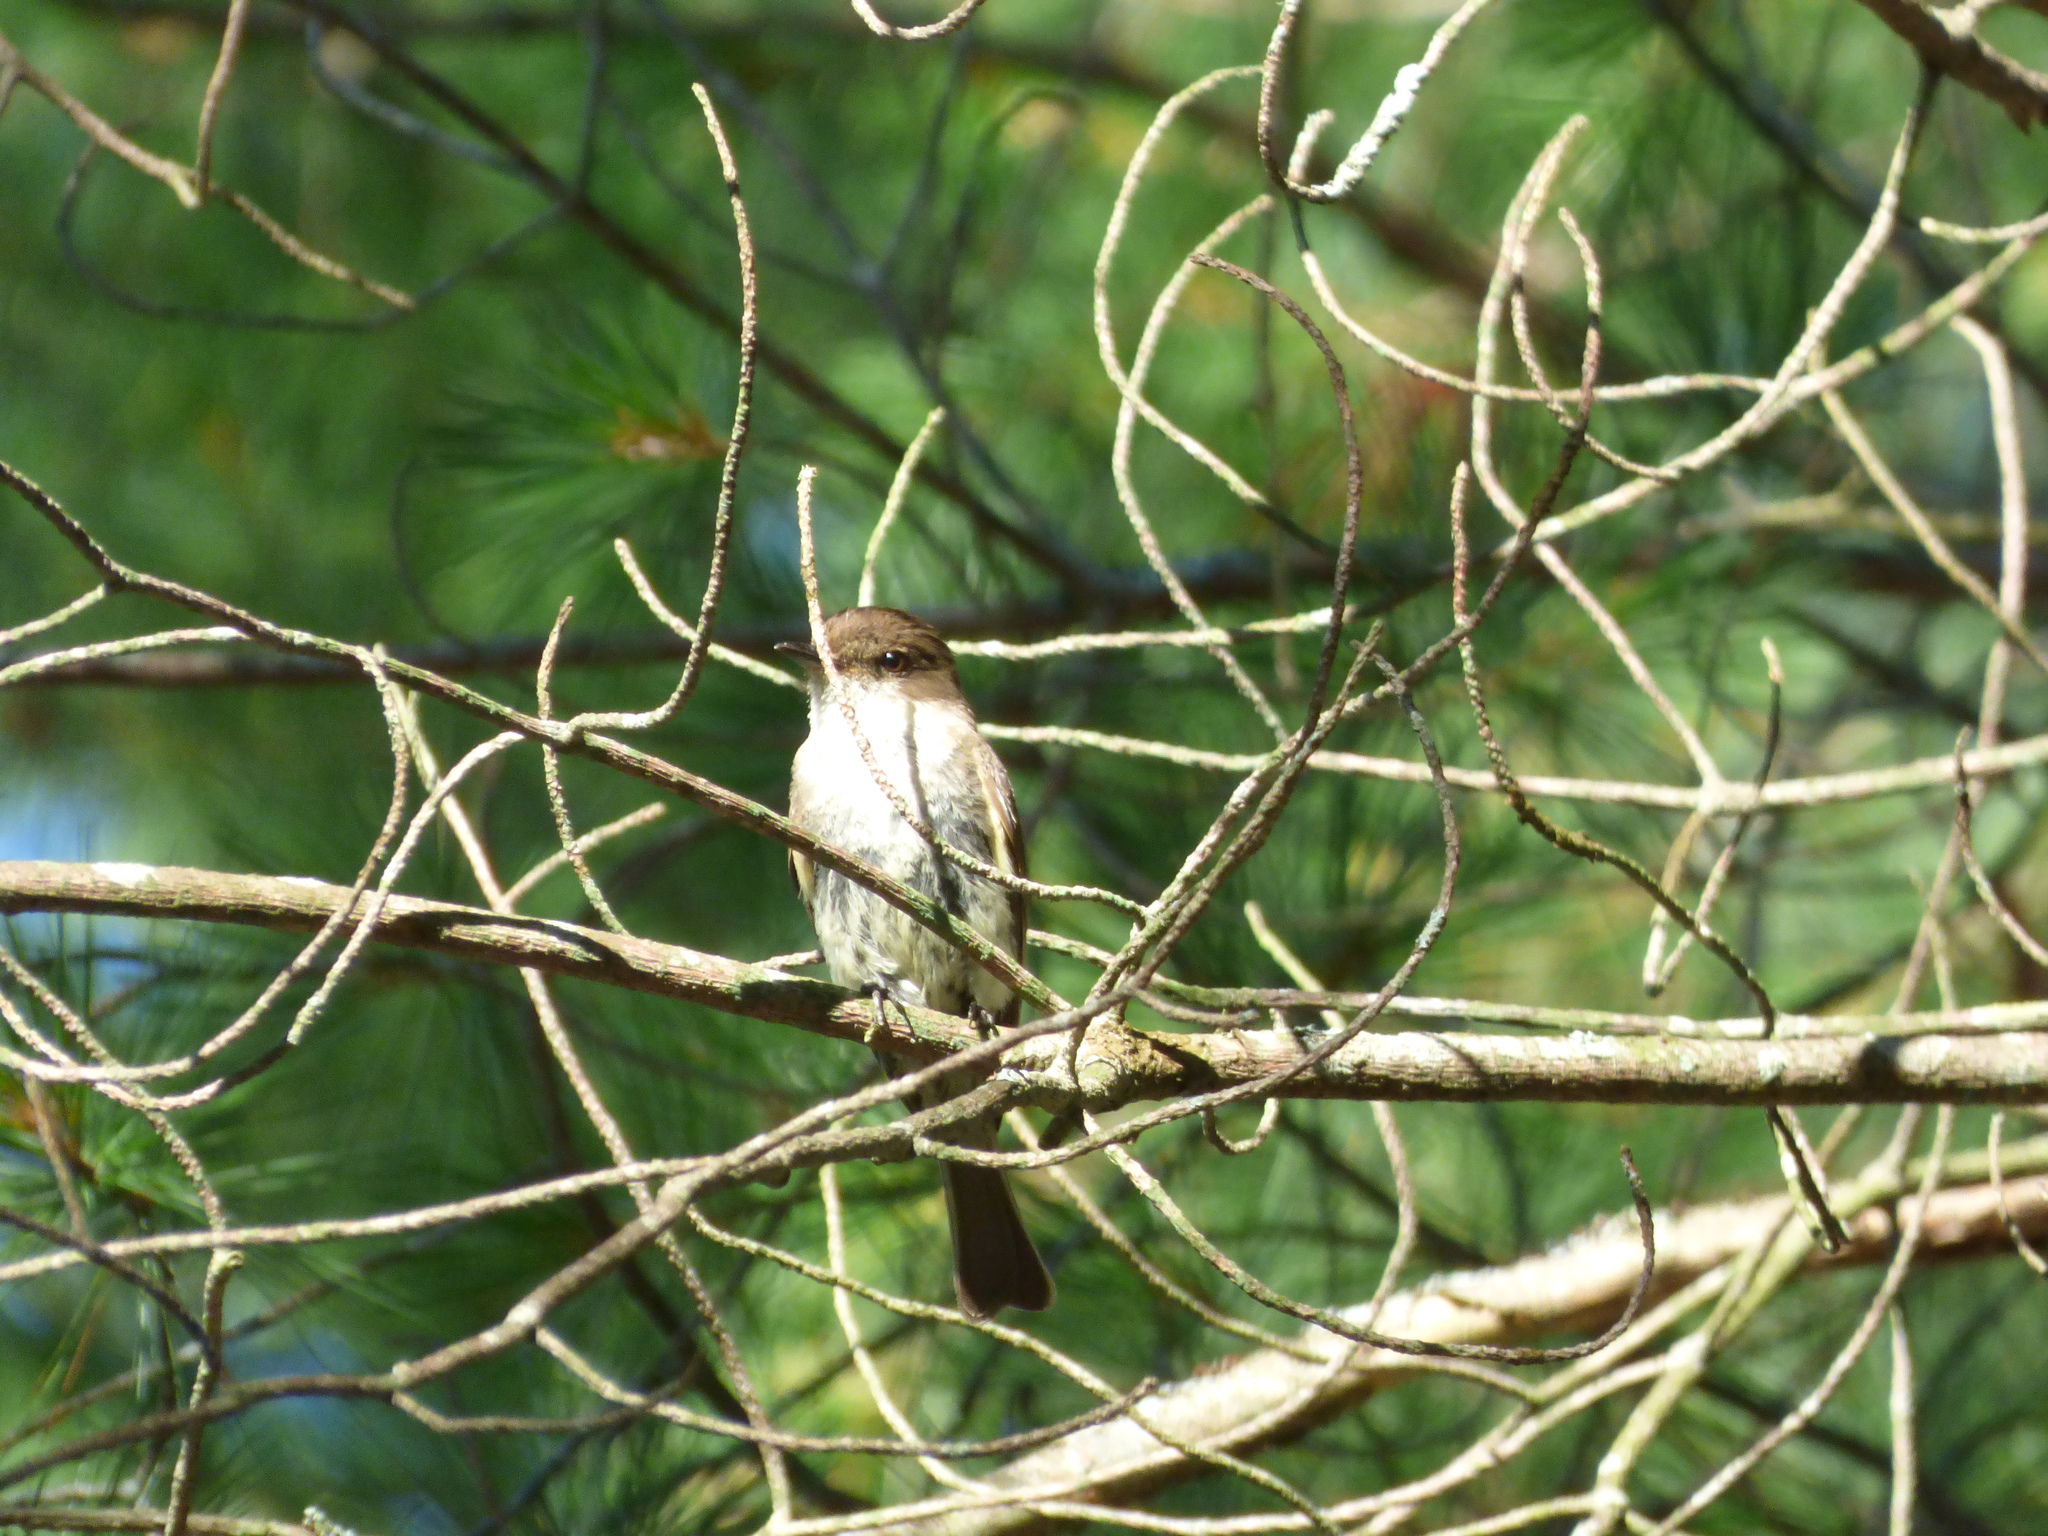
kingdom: Animalia
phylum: Chordata
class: Aves
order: Passeriformes
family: Tyrannidae
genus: Sayornis
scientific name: Sayornis phoebe
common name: Eastern phoebe
